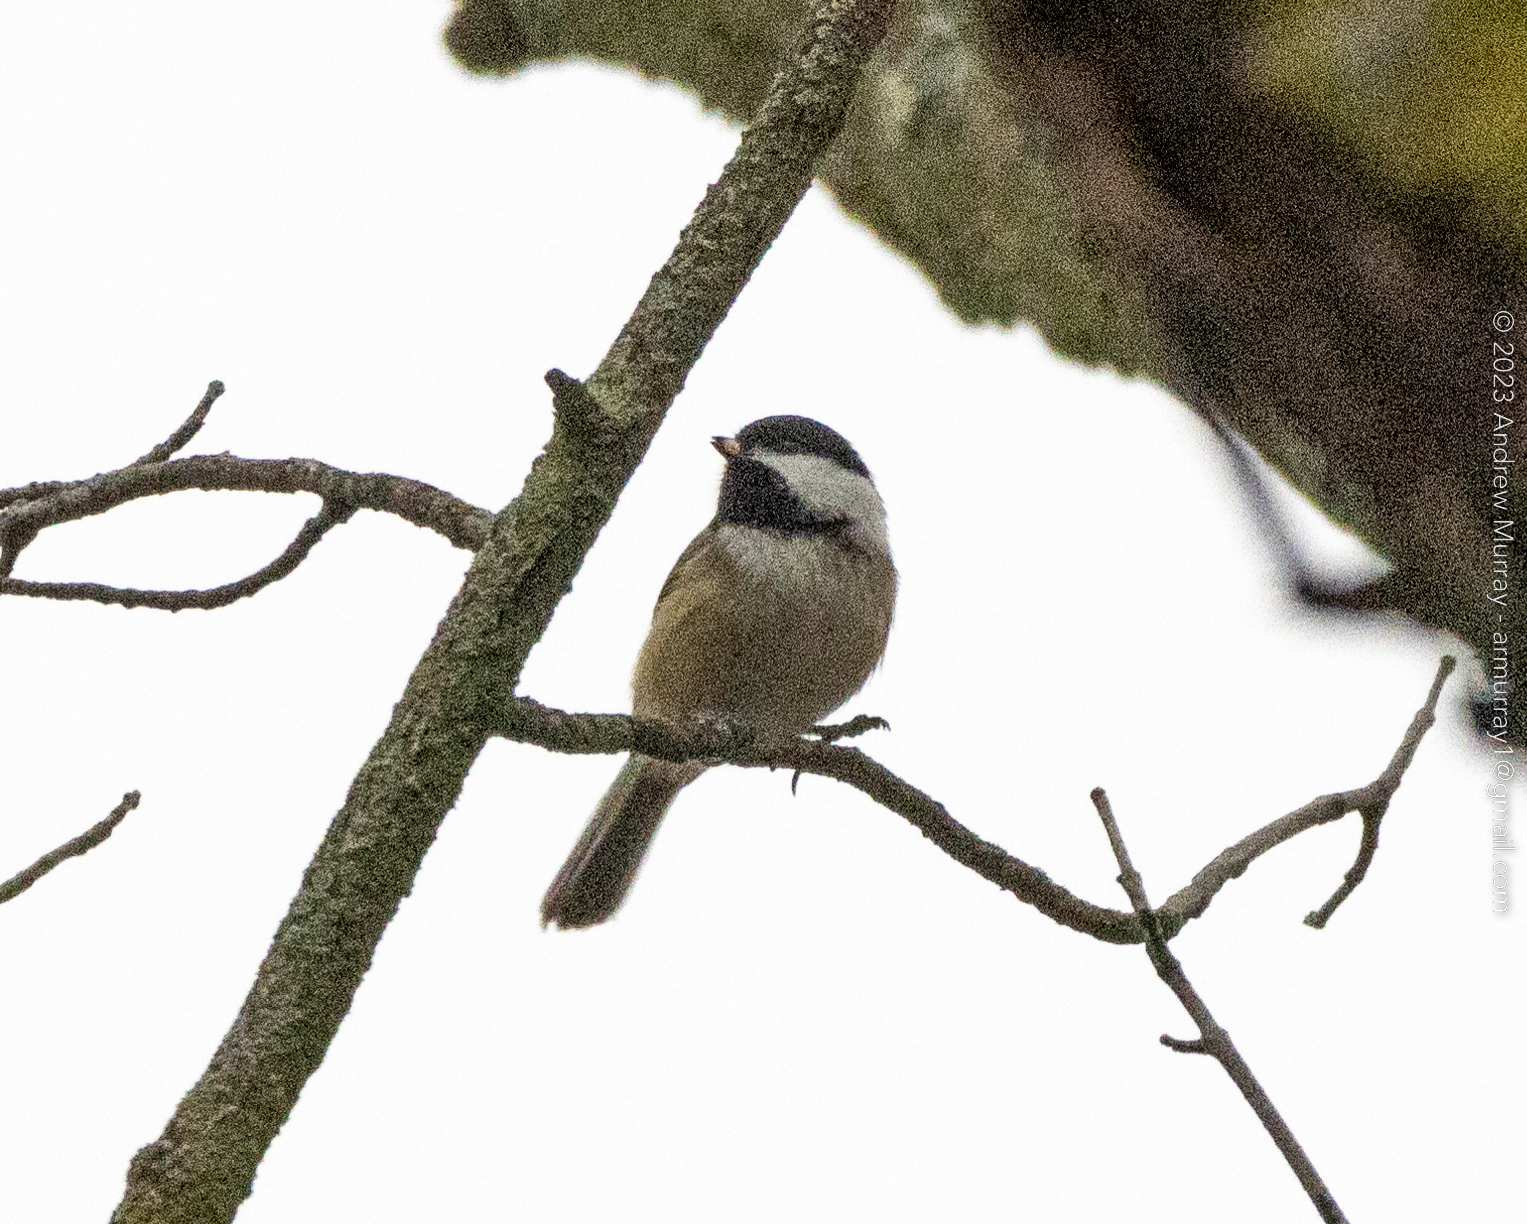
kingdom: Animalia
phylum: Chordata
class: Aves
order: Passeriformes
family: Paridae
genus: Poecile
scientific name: Poecile atricapillus
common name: Black-capped chickadee
